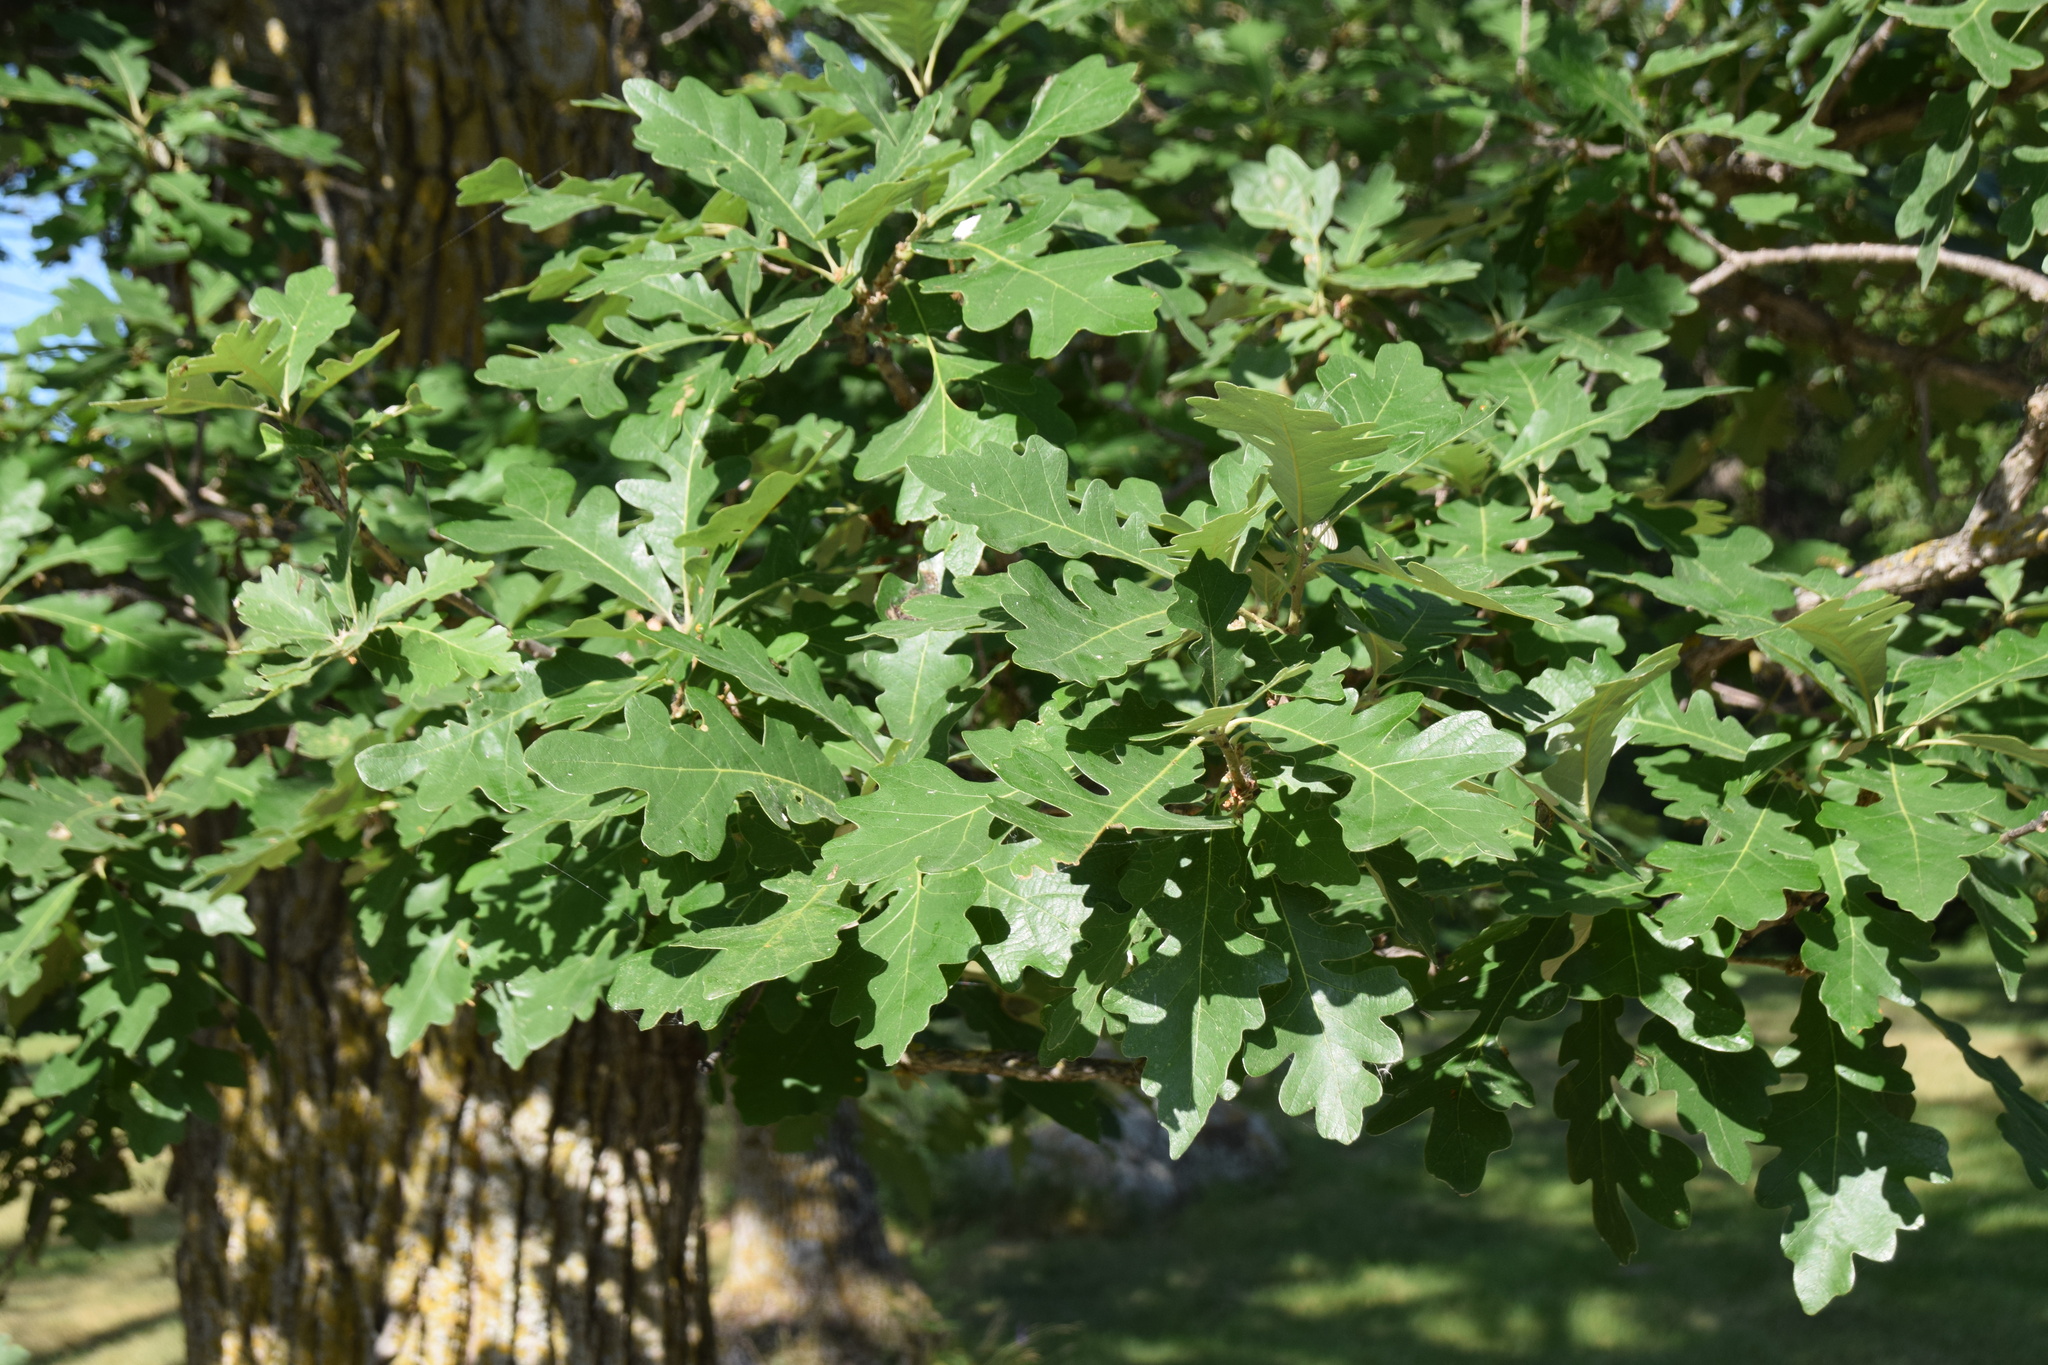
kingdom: Plantae
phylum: Tracheophyta
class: Magnoliopsida
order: Fagales
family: Fagaceae
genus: Quercus
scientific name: Quercus macrocarpa
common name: Bur oak
